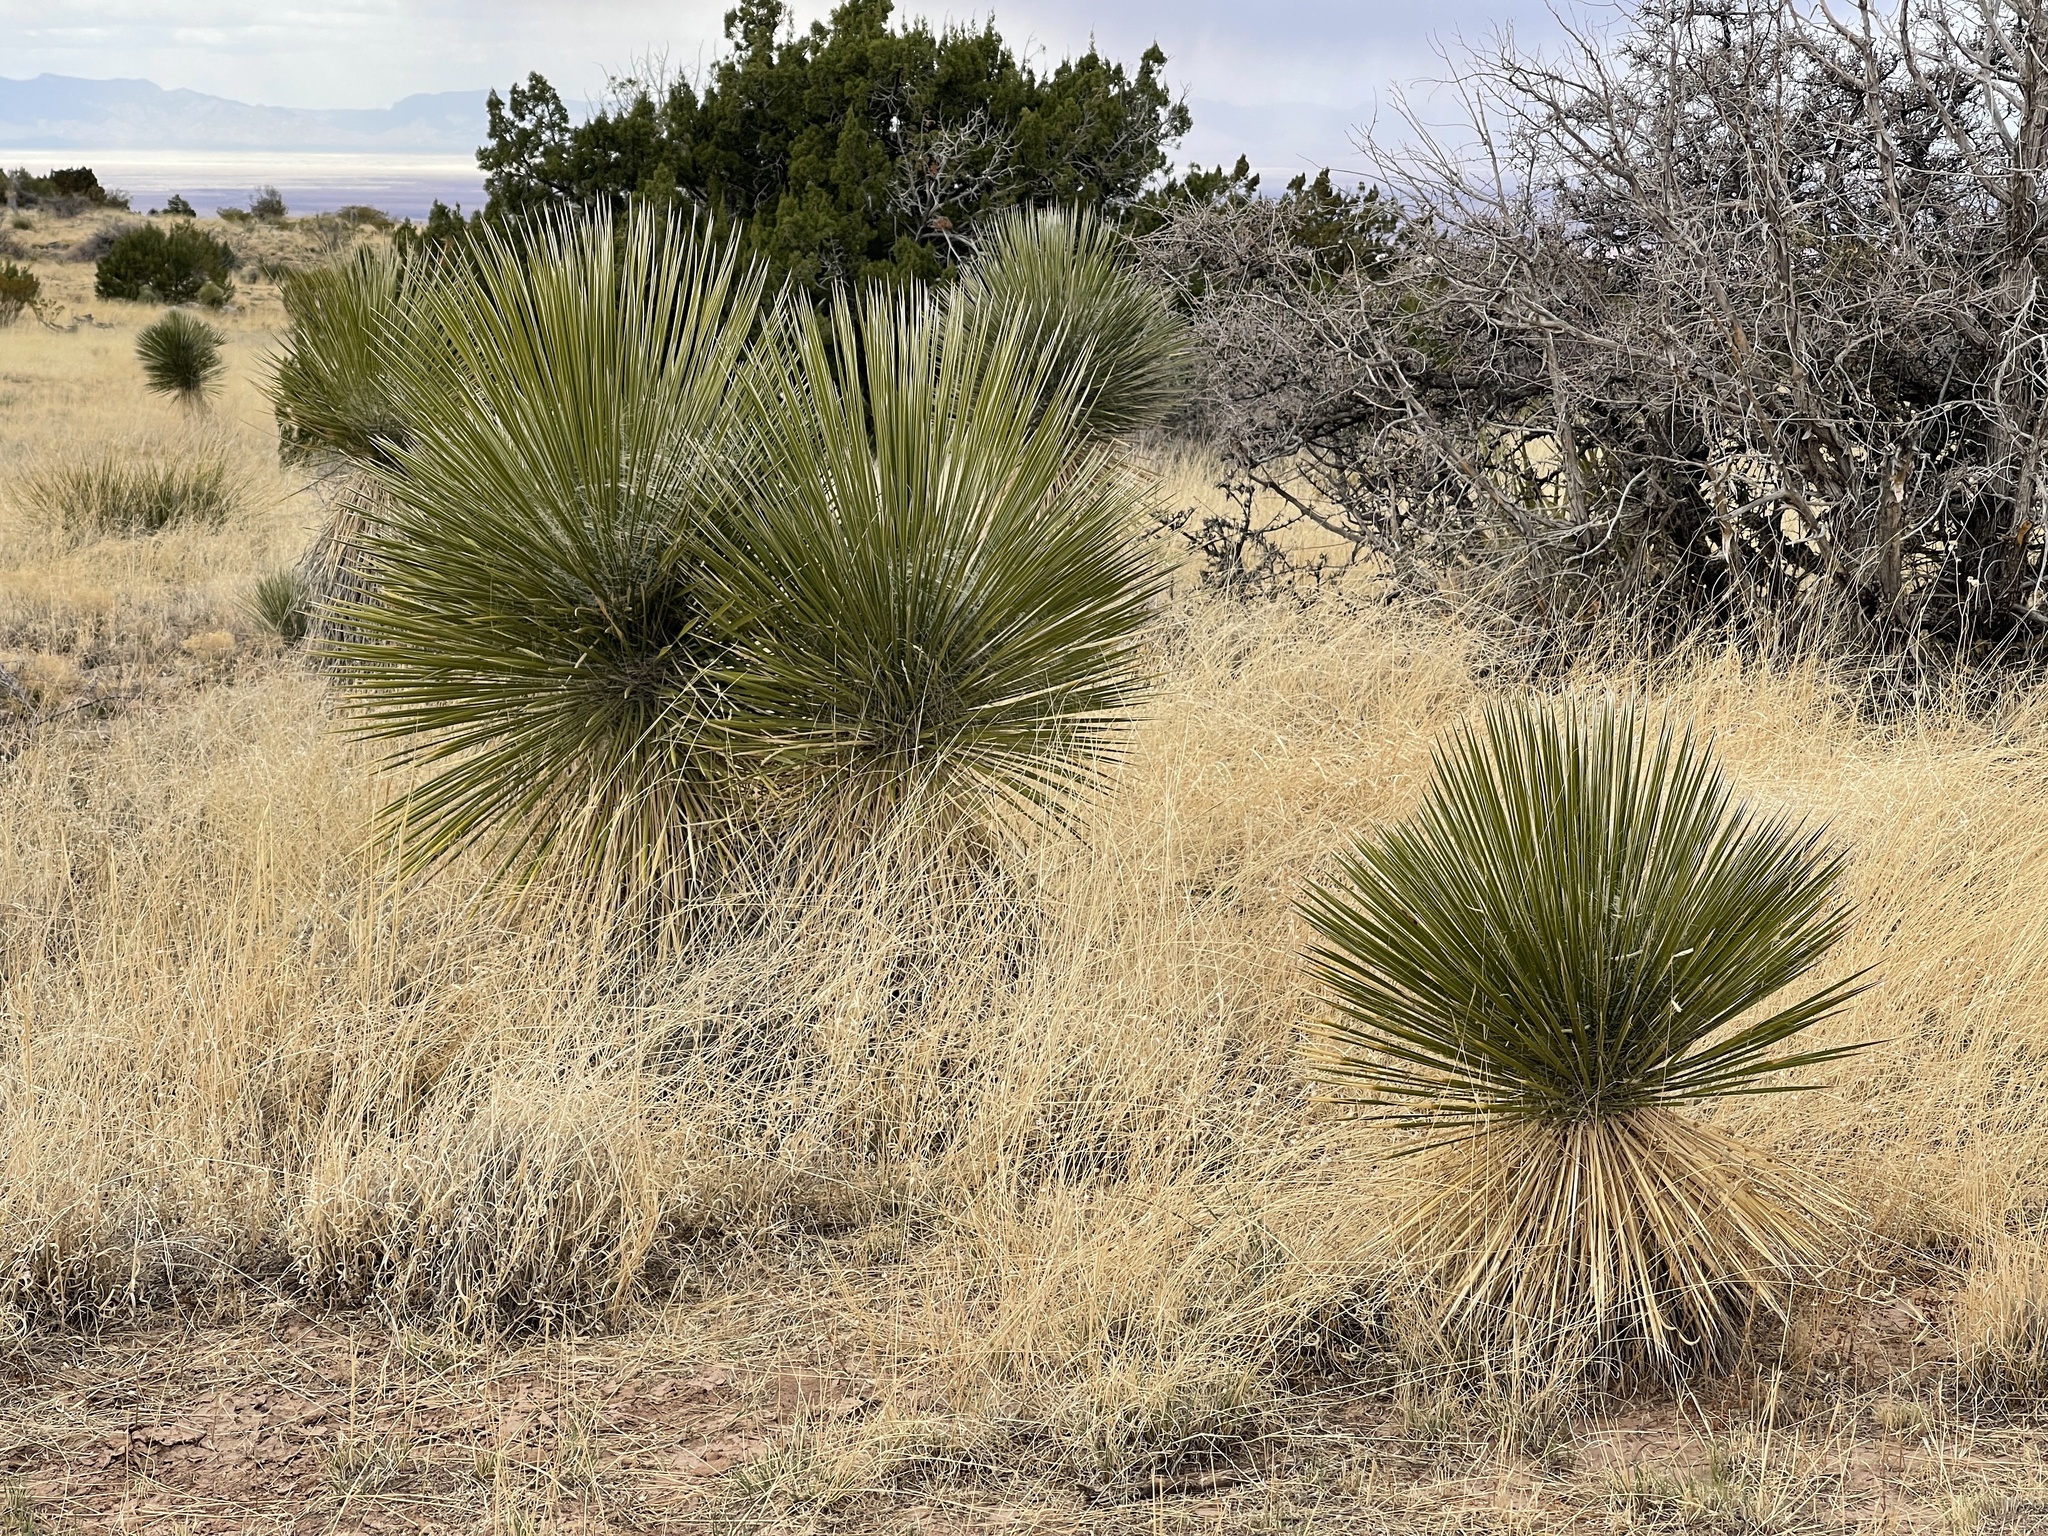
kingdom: Plantae
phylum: Tracheophyta
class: Liliopsida
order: Asparagales
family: Asparagaceae
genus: Yucca
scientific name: Yucca elata
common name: Palmella
